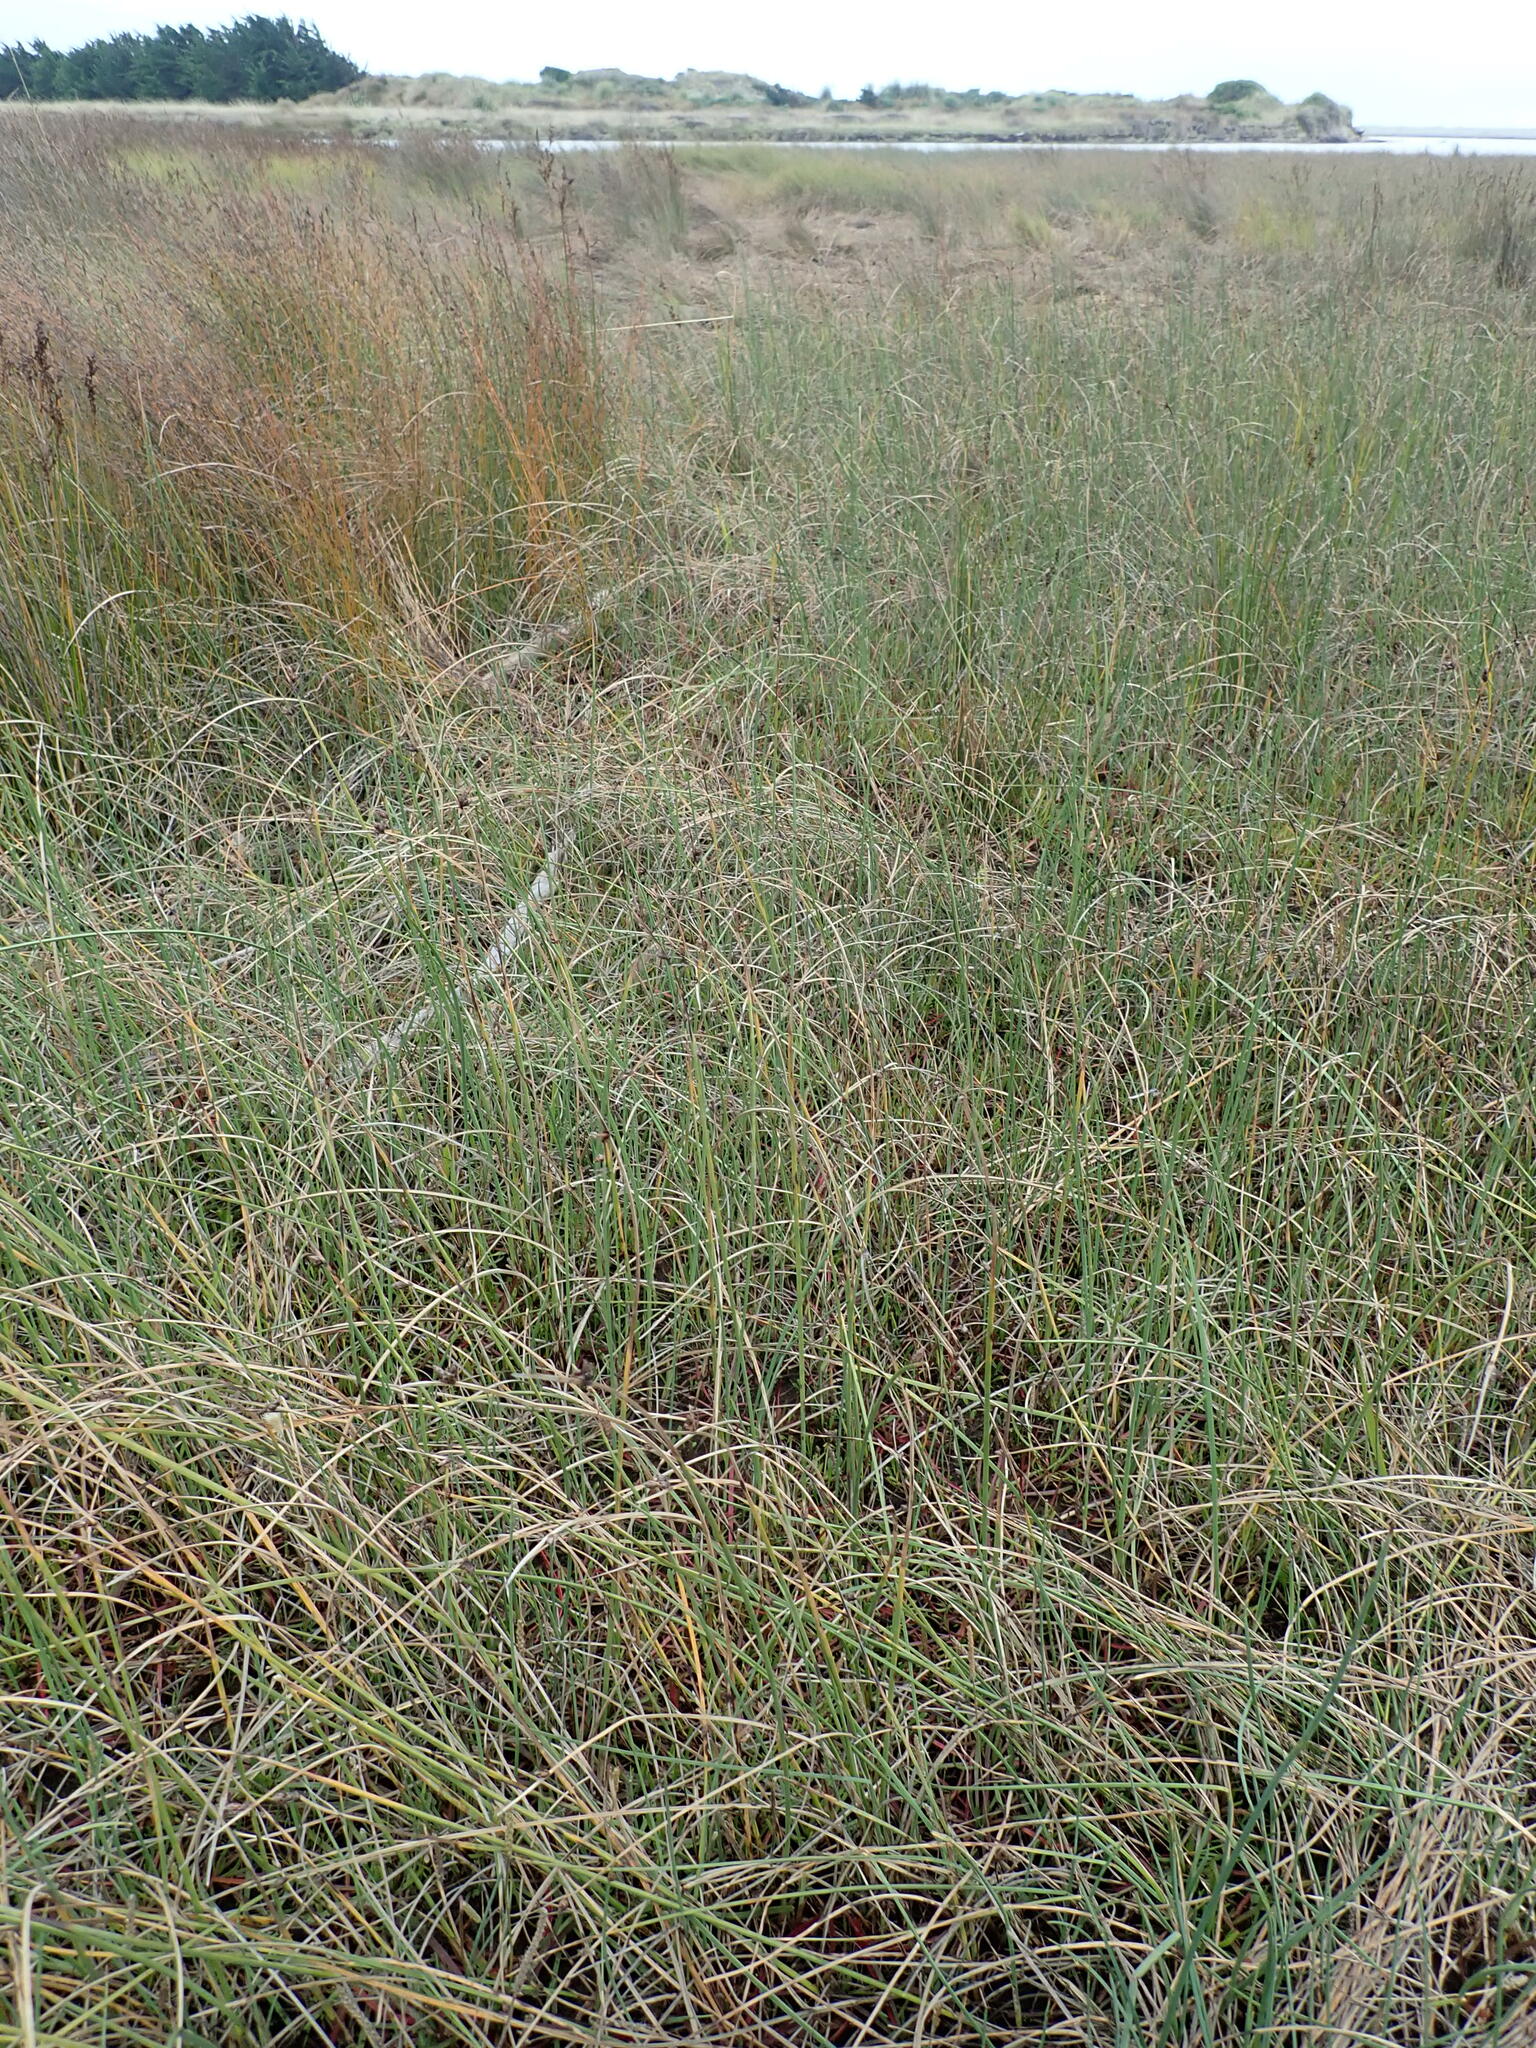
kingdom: Plantae
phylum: Tracheophyta
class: Liliopsida
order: Poales
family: Cyperaceae
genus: Schoenoplectus
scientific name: Schoenoplectus pungens
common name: Sharp club-rush
